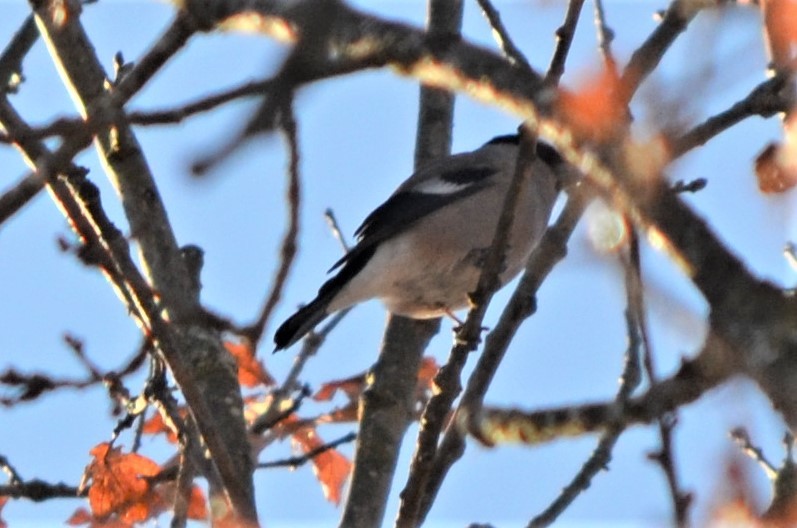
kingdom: Animalia
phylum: Chordata
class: Aves
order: Passeriformes
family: Fringillidae
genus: Pyrrhula
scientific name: Pyrrhula pyrrhula
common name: Eurasian bullfinch
